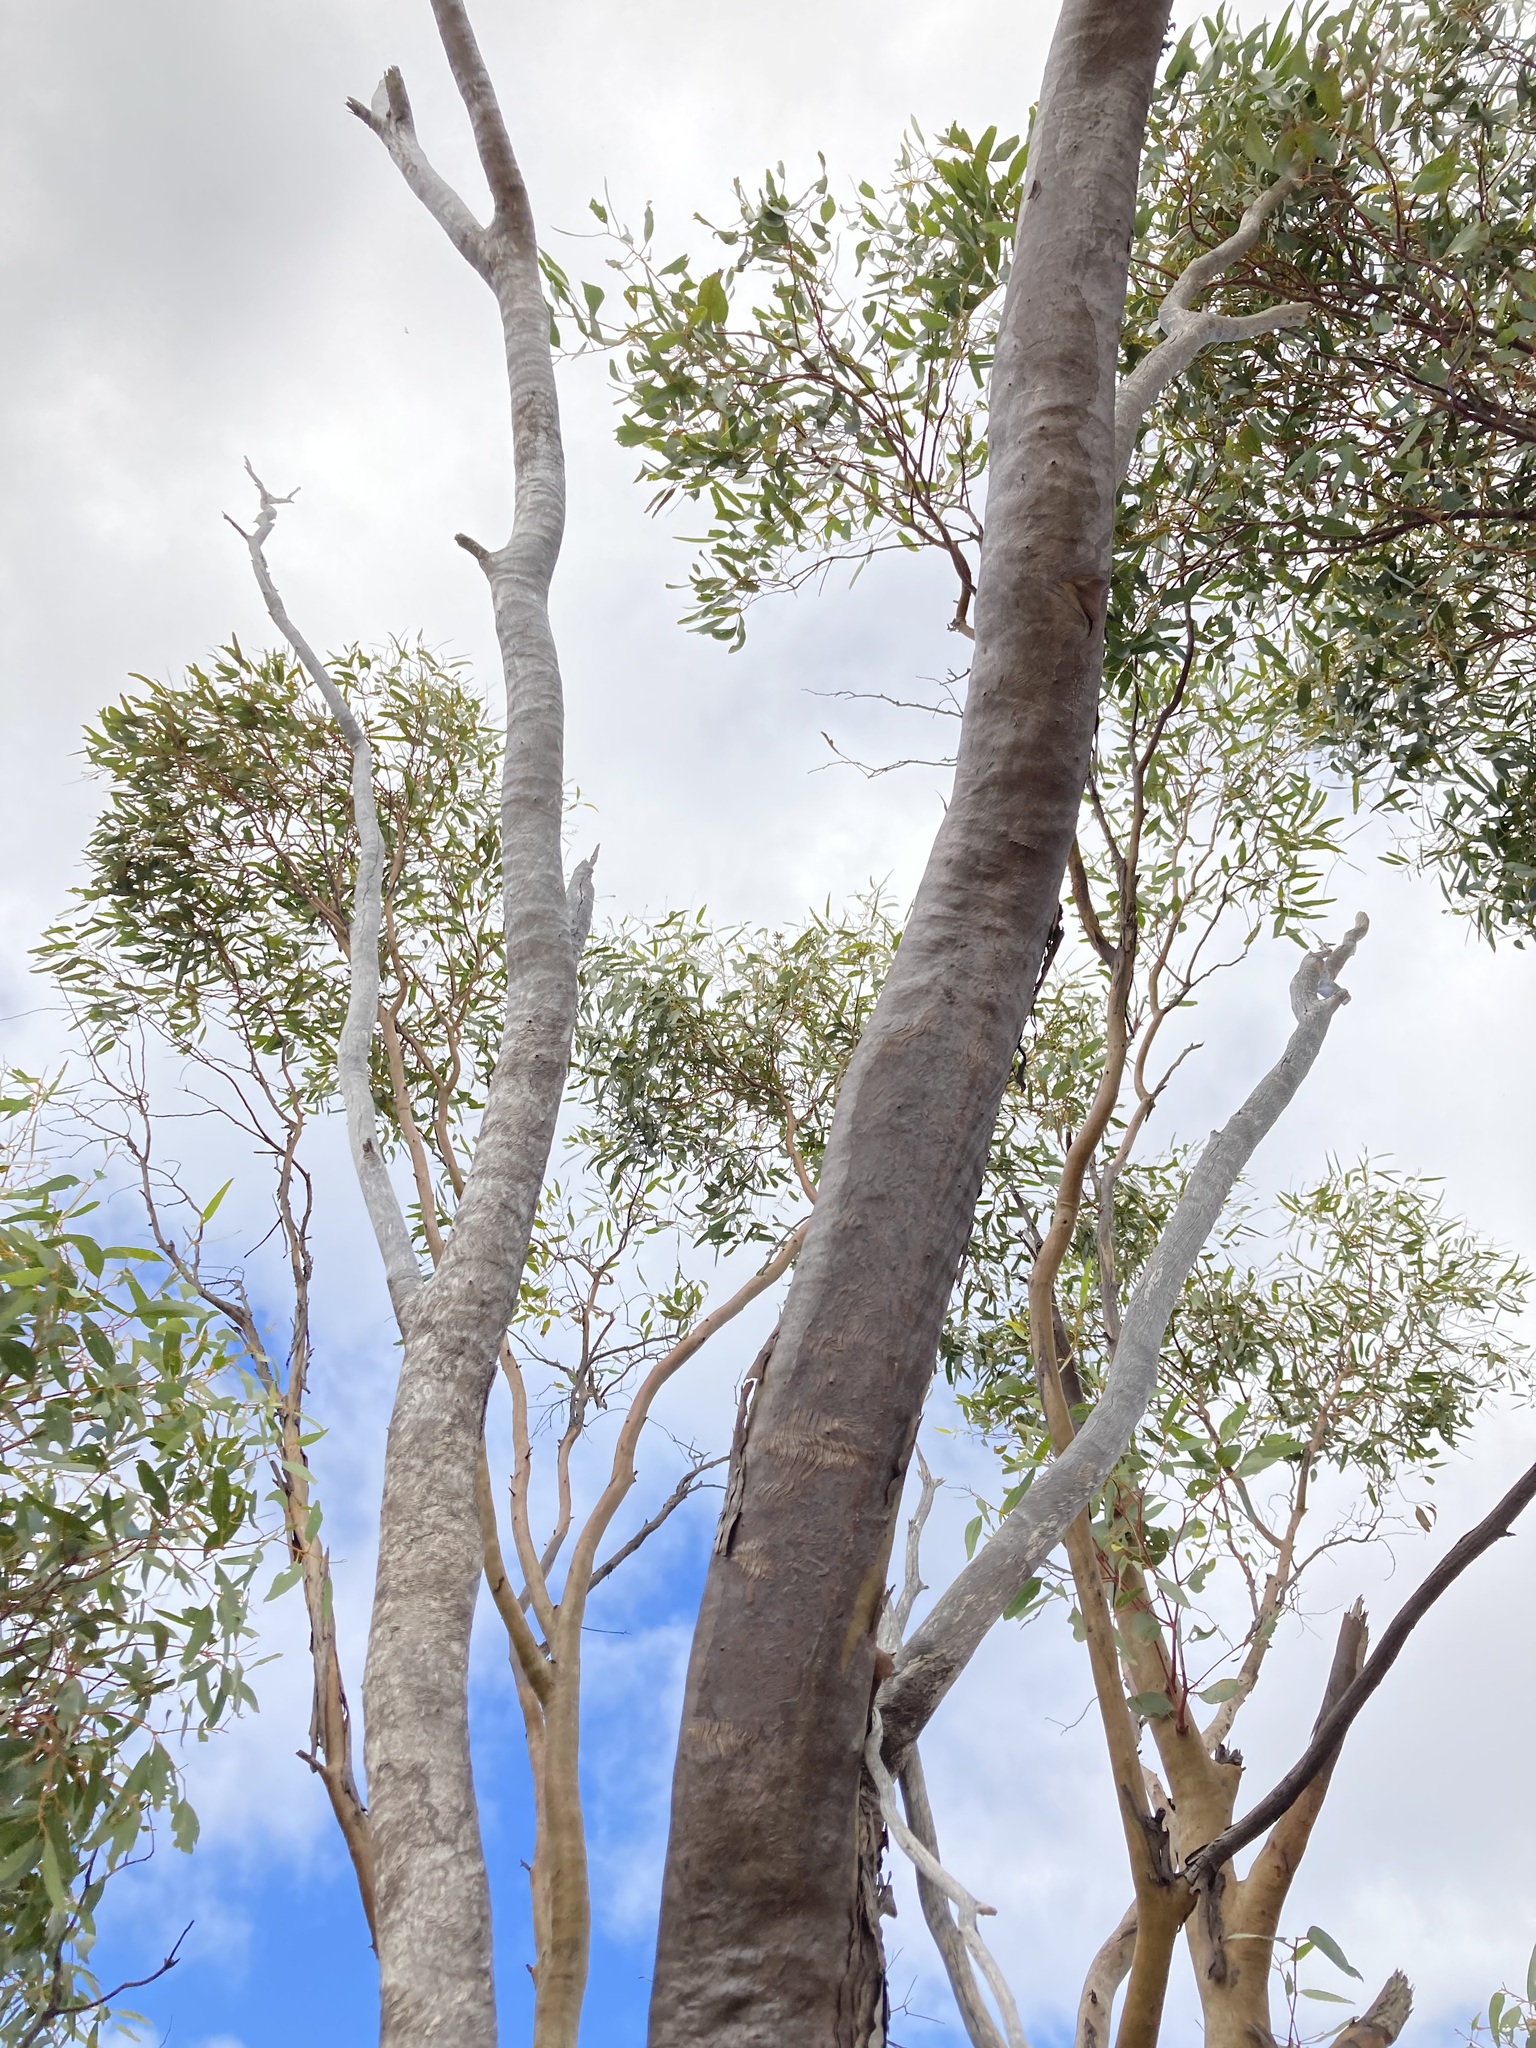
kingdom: Plantae
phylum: Tracheophyta
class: Magnoliopsida
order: Myrtales
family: Myrtaceae
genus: Eucalyptus
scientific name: Eucalyptus loxophleba
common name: York gum
